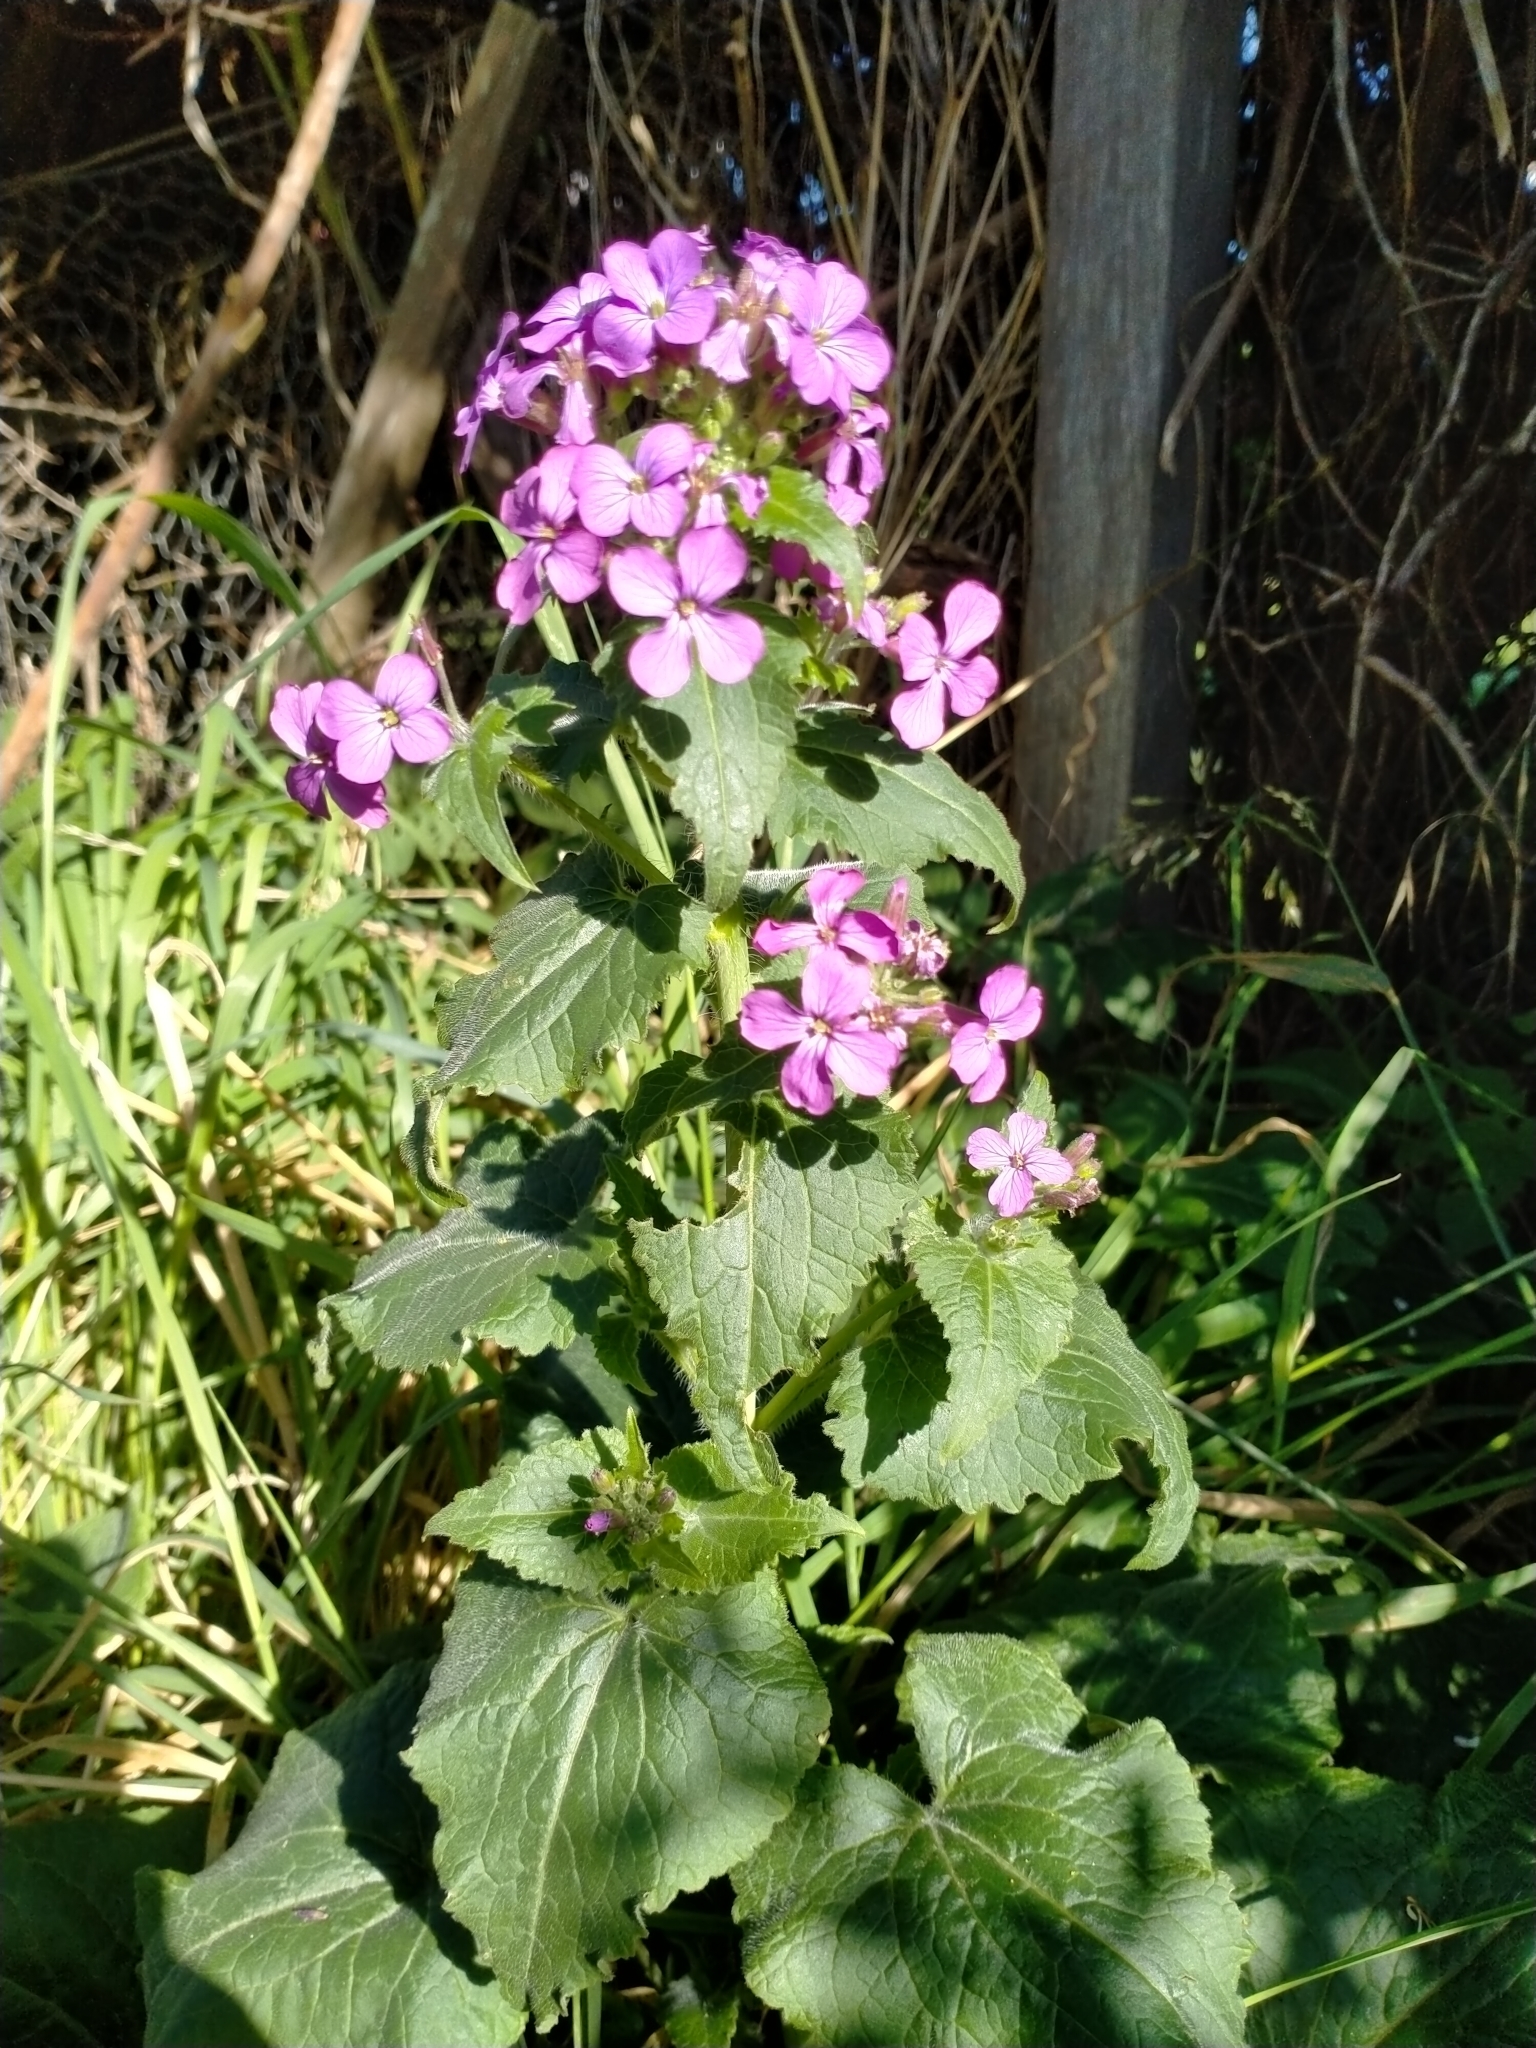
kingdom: Plantae
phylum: Tracheophyta
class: Magnoliopsida
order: Brassicales
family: Brassicaceae
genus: Lunaria
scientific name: Lunaria annua
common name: Honesty
